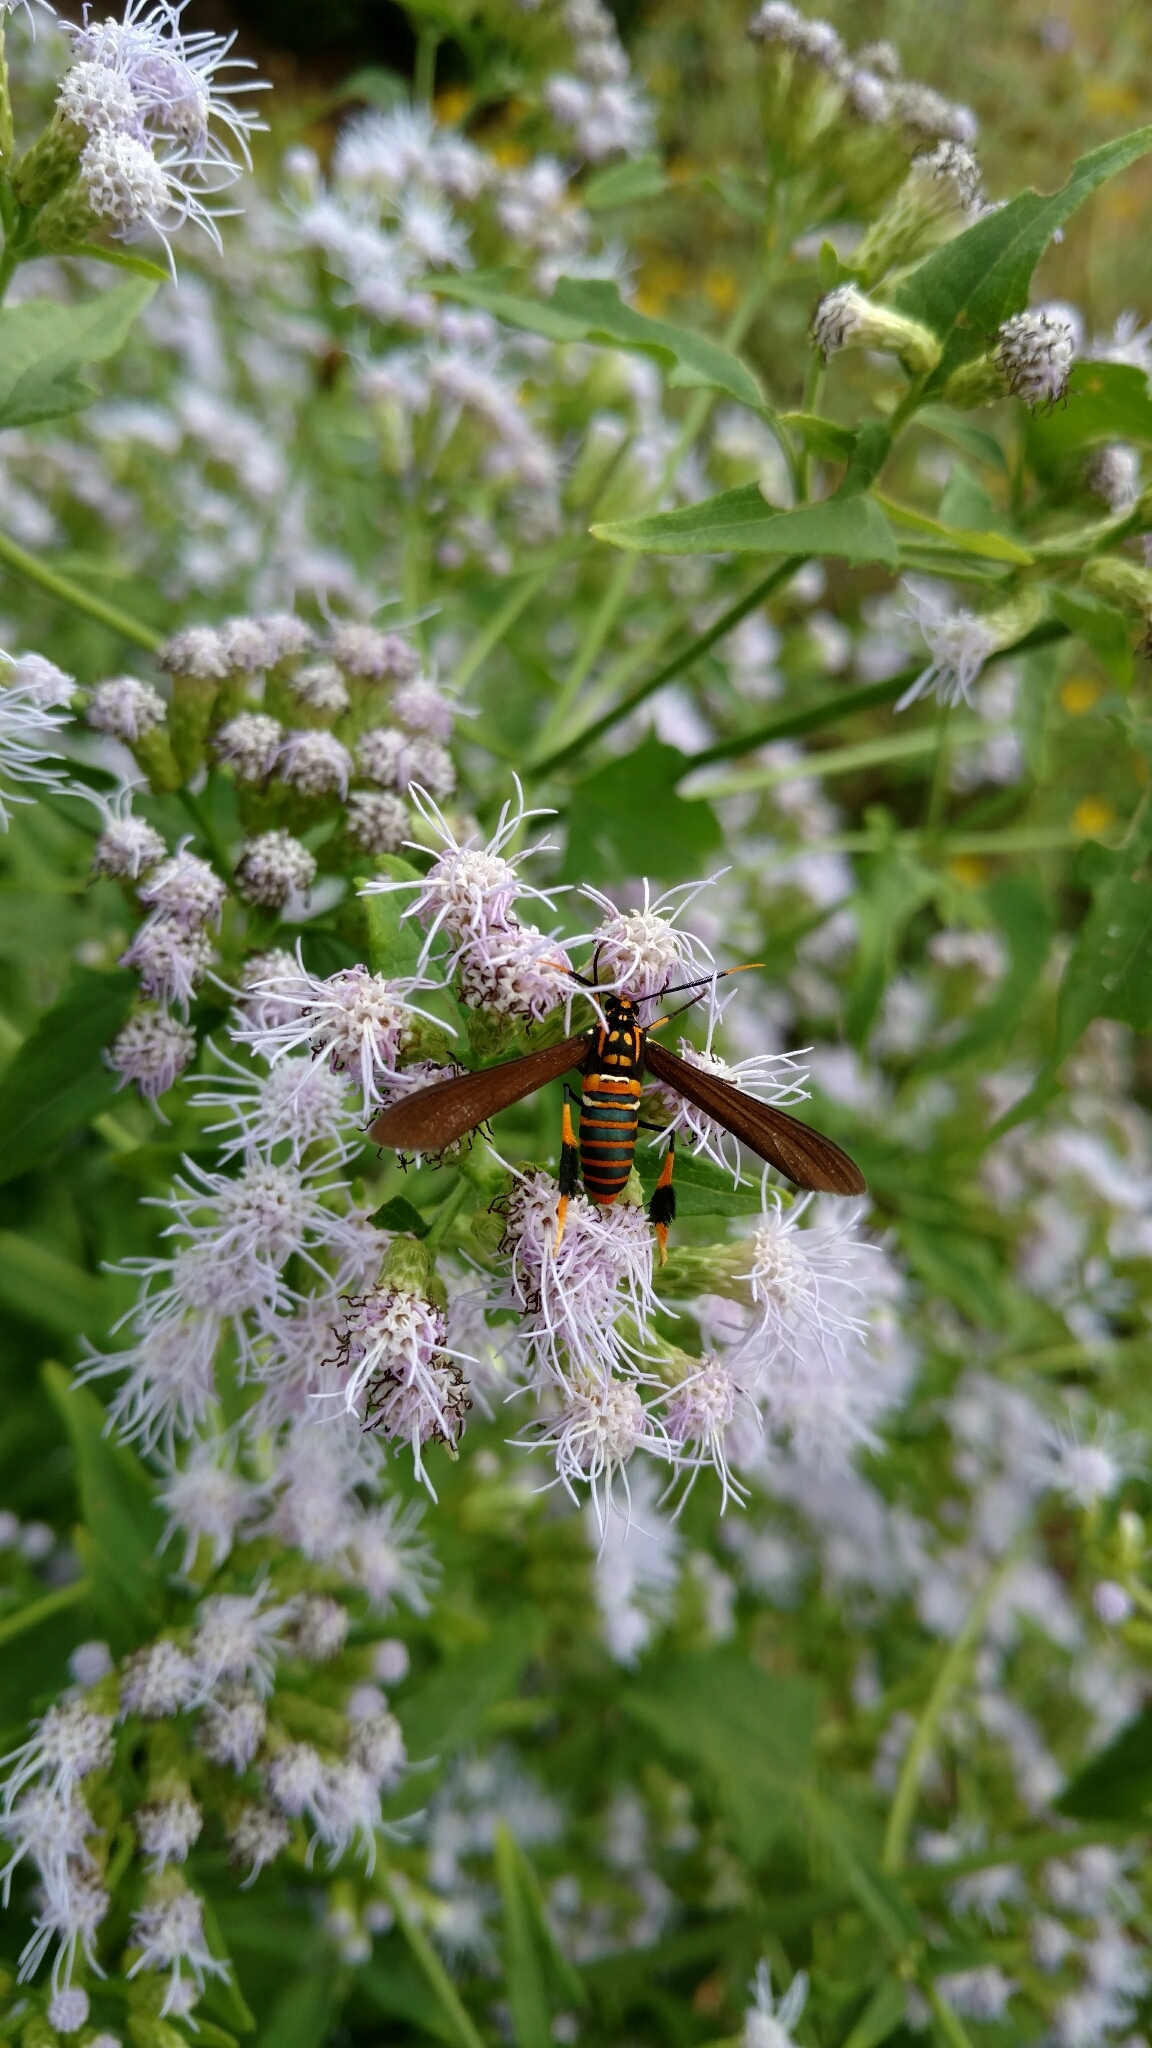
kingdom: Animalia
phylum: Arthropoda
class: Insecta
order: Lepidoptera
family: Erebidae
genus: Horama
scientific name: Horama panthalon
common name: Texas wasp moth
